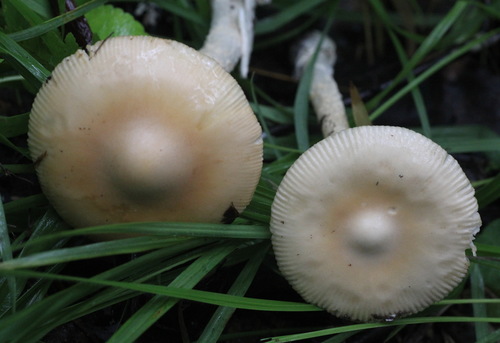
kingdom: Fungi
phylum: Basidiomycota
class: Agaricomycetes
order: Agaricales
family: Amanitaceae
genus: Amanita
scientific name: Amanita contui
